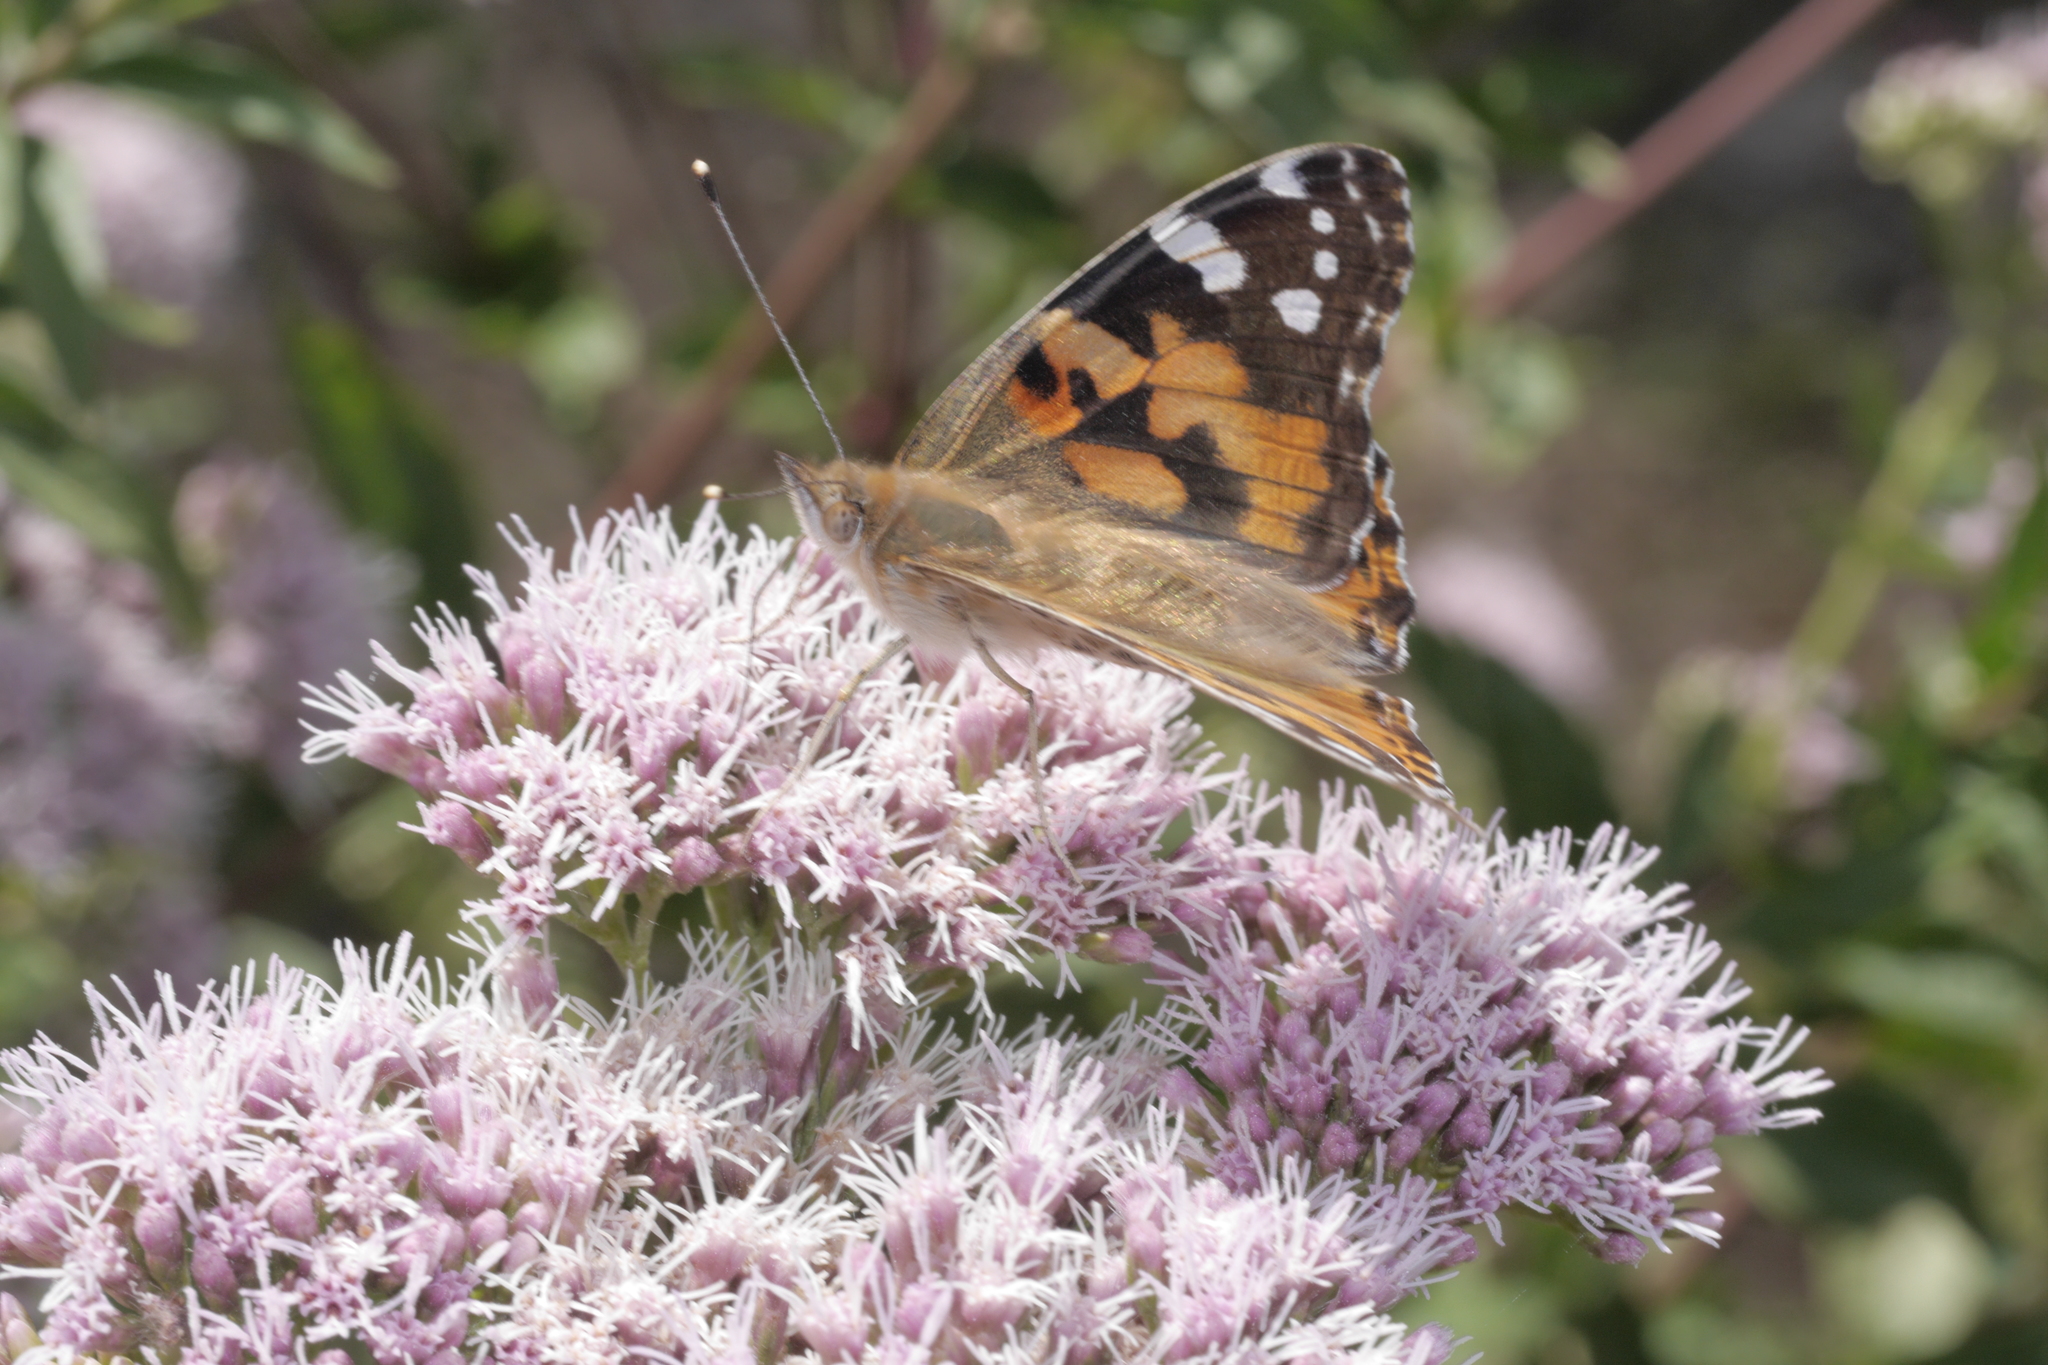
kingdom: Animalia
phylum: Arthropoda
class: Insecta
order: Lepidoptera
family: Nymphalidae
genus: Vanessa
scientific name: Vanessa cardui
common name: Painted lady
